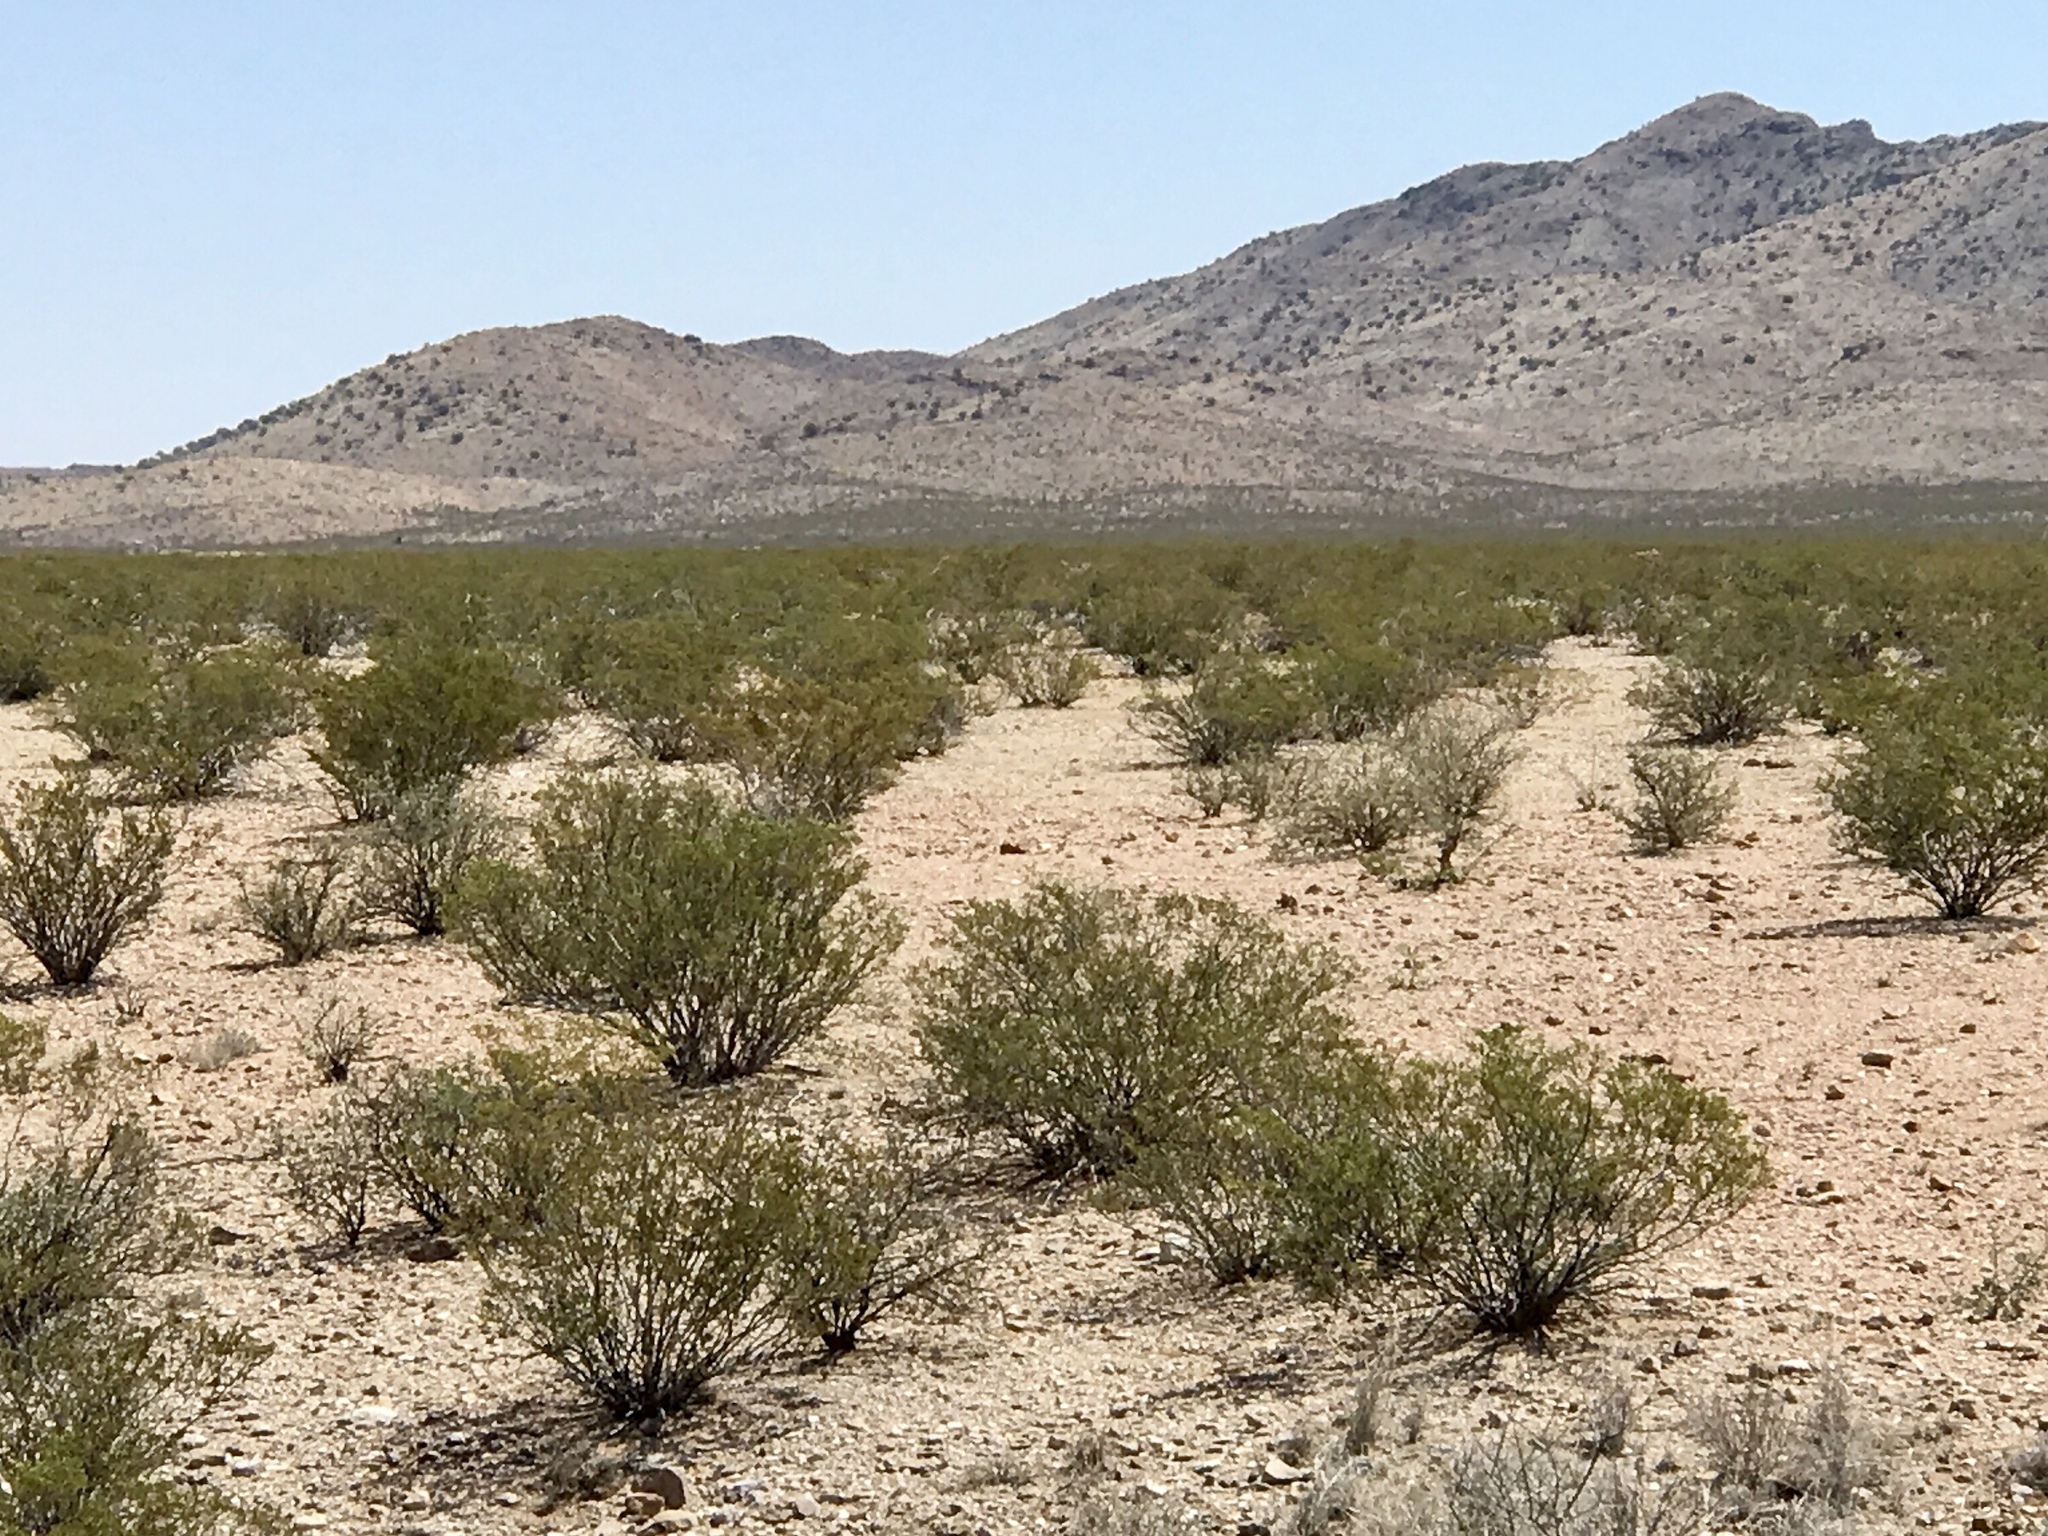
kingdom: Plantae
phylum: Tracheophyta
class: Magnoliopsida
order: Zygophyllales
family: Zygophyllaceae
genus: Larrea
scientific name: Larrea tridentata
